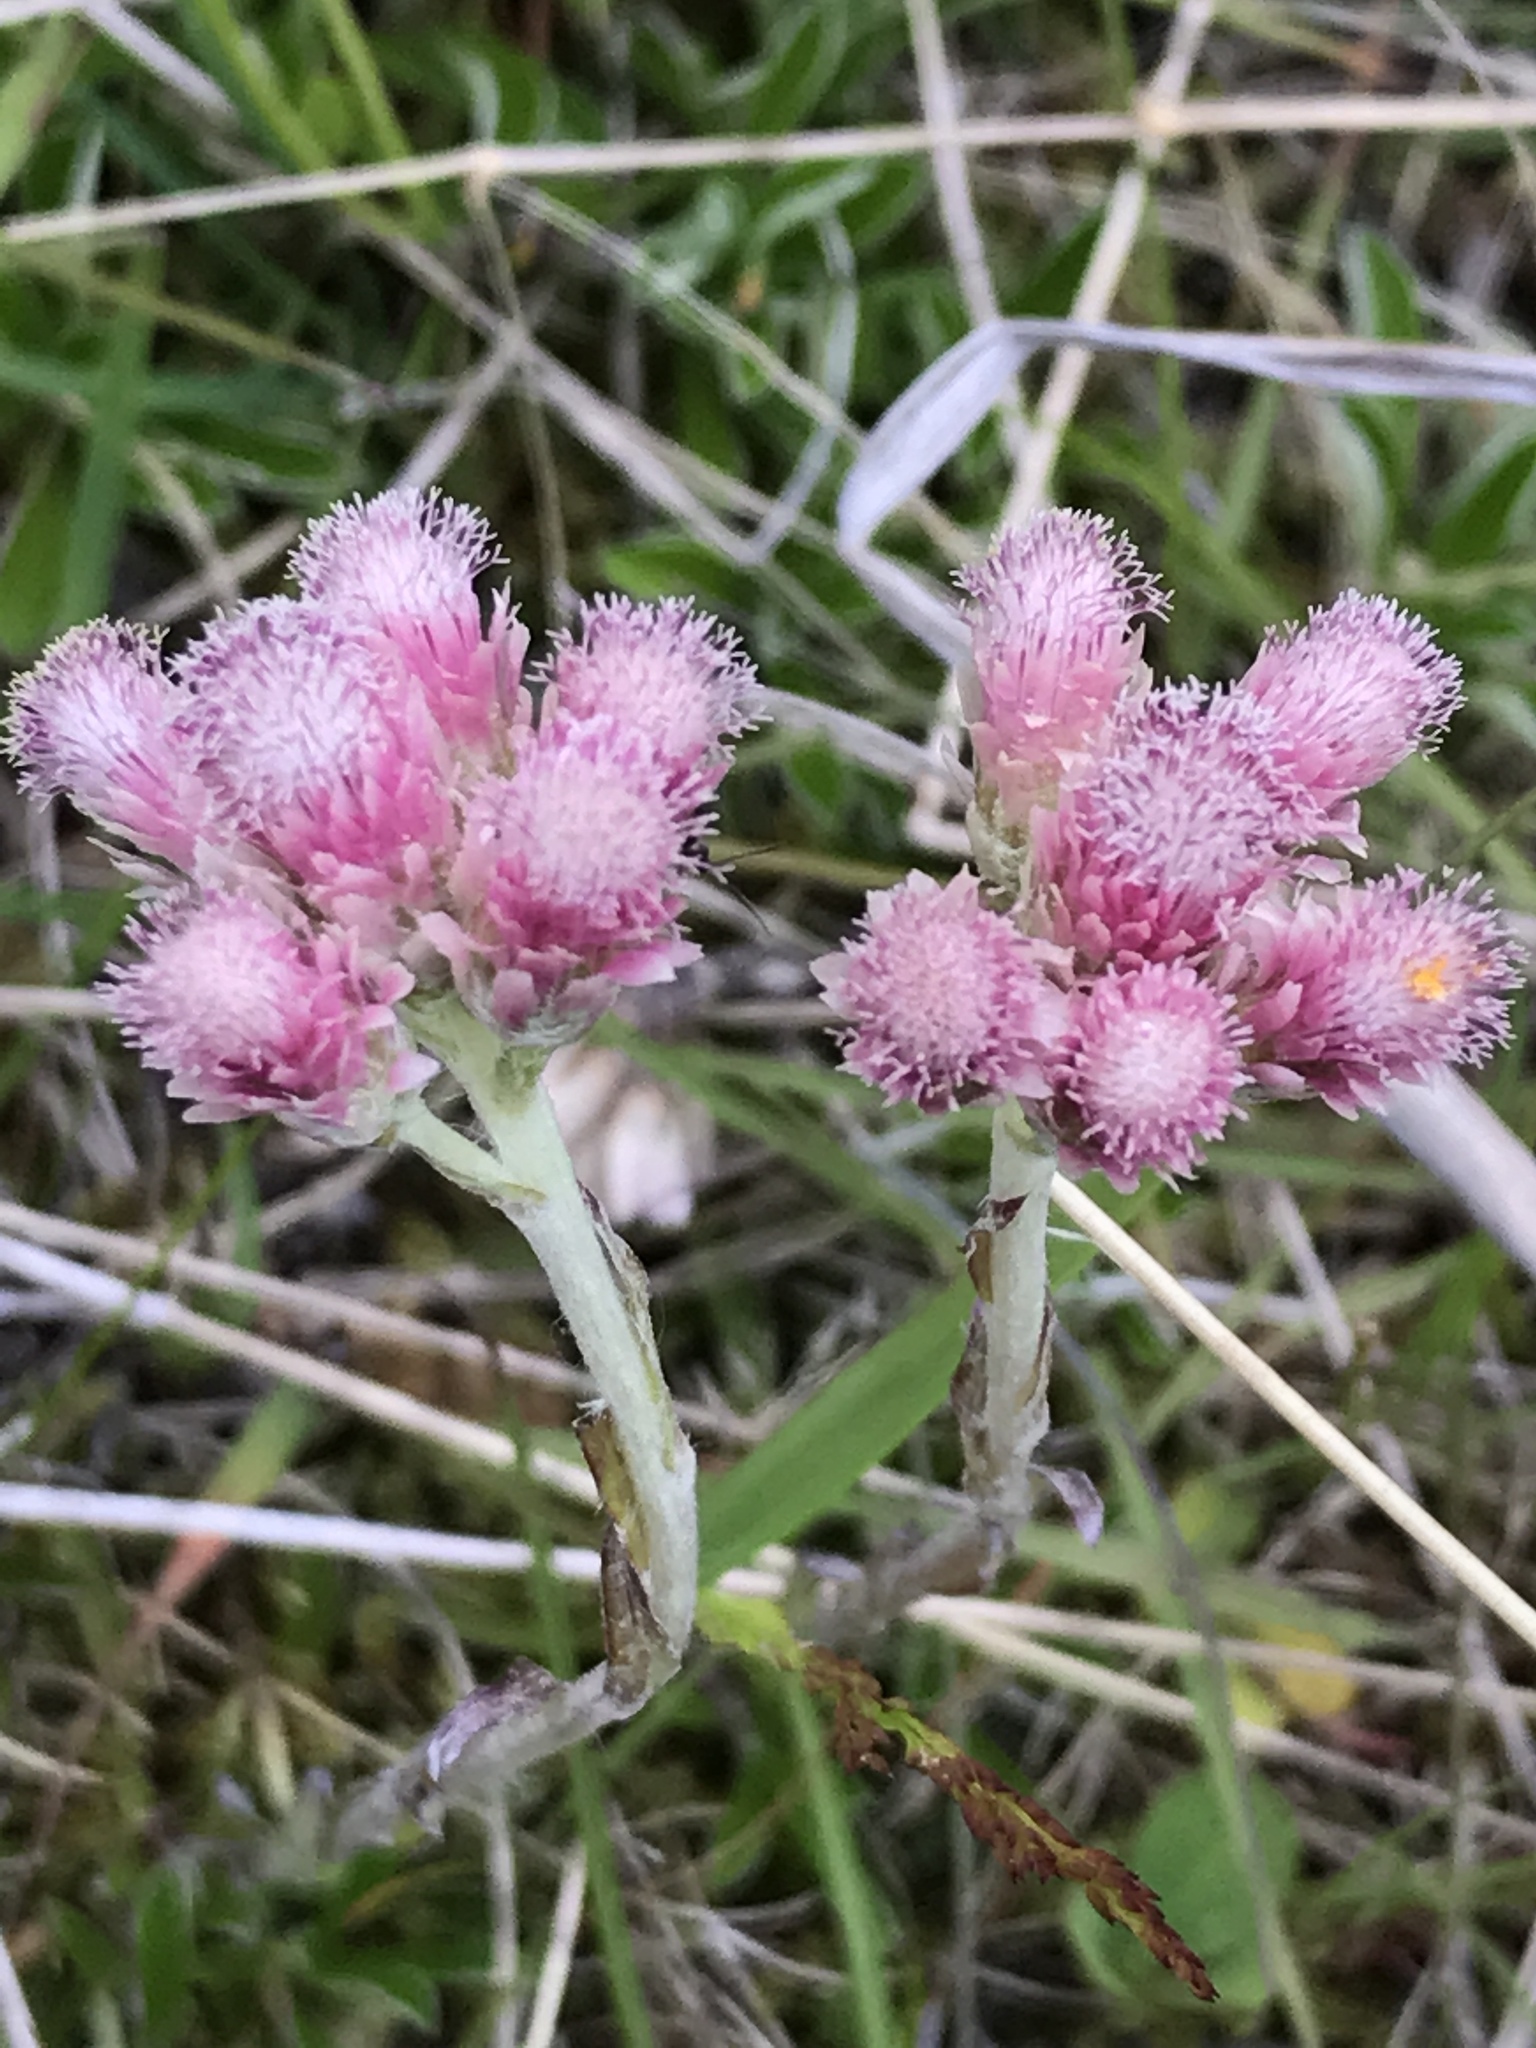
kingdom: Plantae
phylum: Tracheophyta
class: Magnoliopsida
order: Asterales
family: Asteraceae
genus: Antennaria
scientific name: Antennaria dioica
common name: Mountain everlasting
